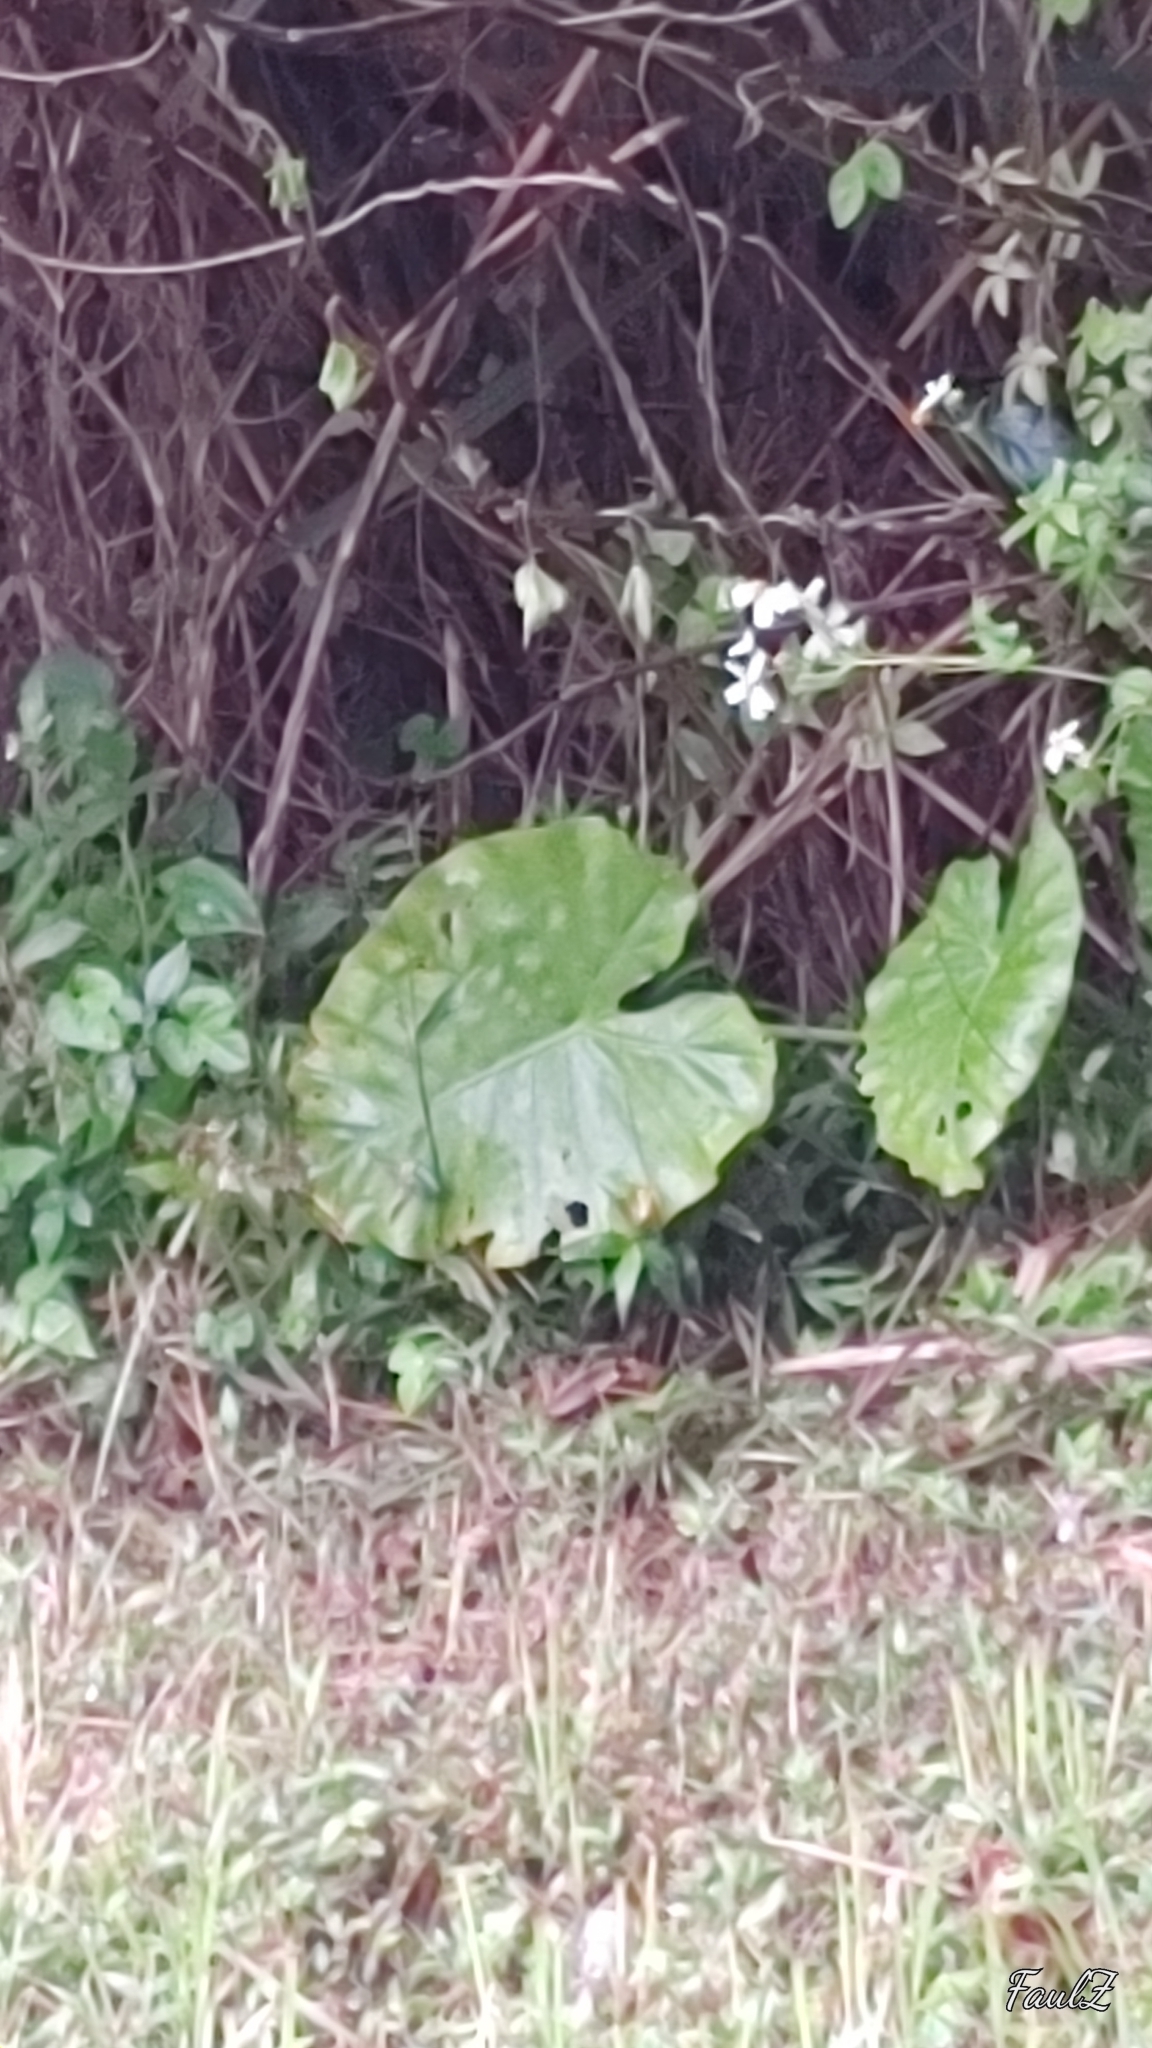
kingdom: Plantae
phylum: Tracheophyta
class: Liliopsida
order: Alismatales
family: Araceae
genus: Alocasia
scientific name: Alocasia odora
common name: Asian taro
